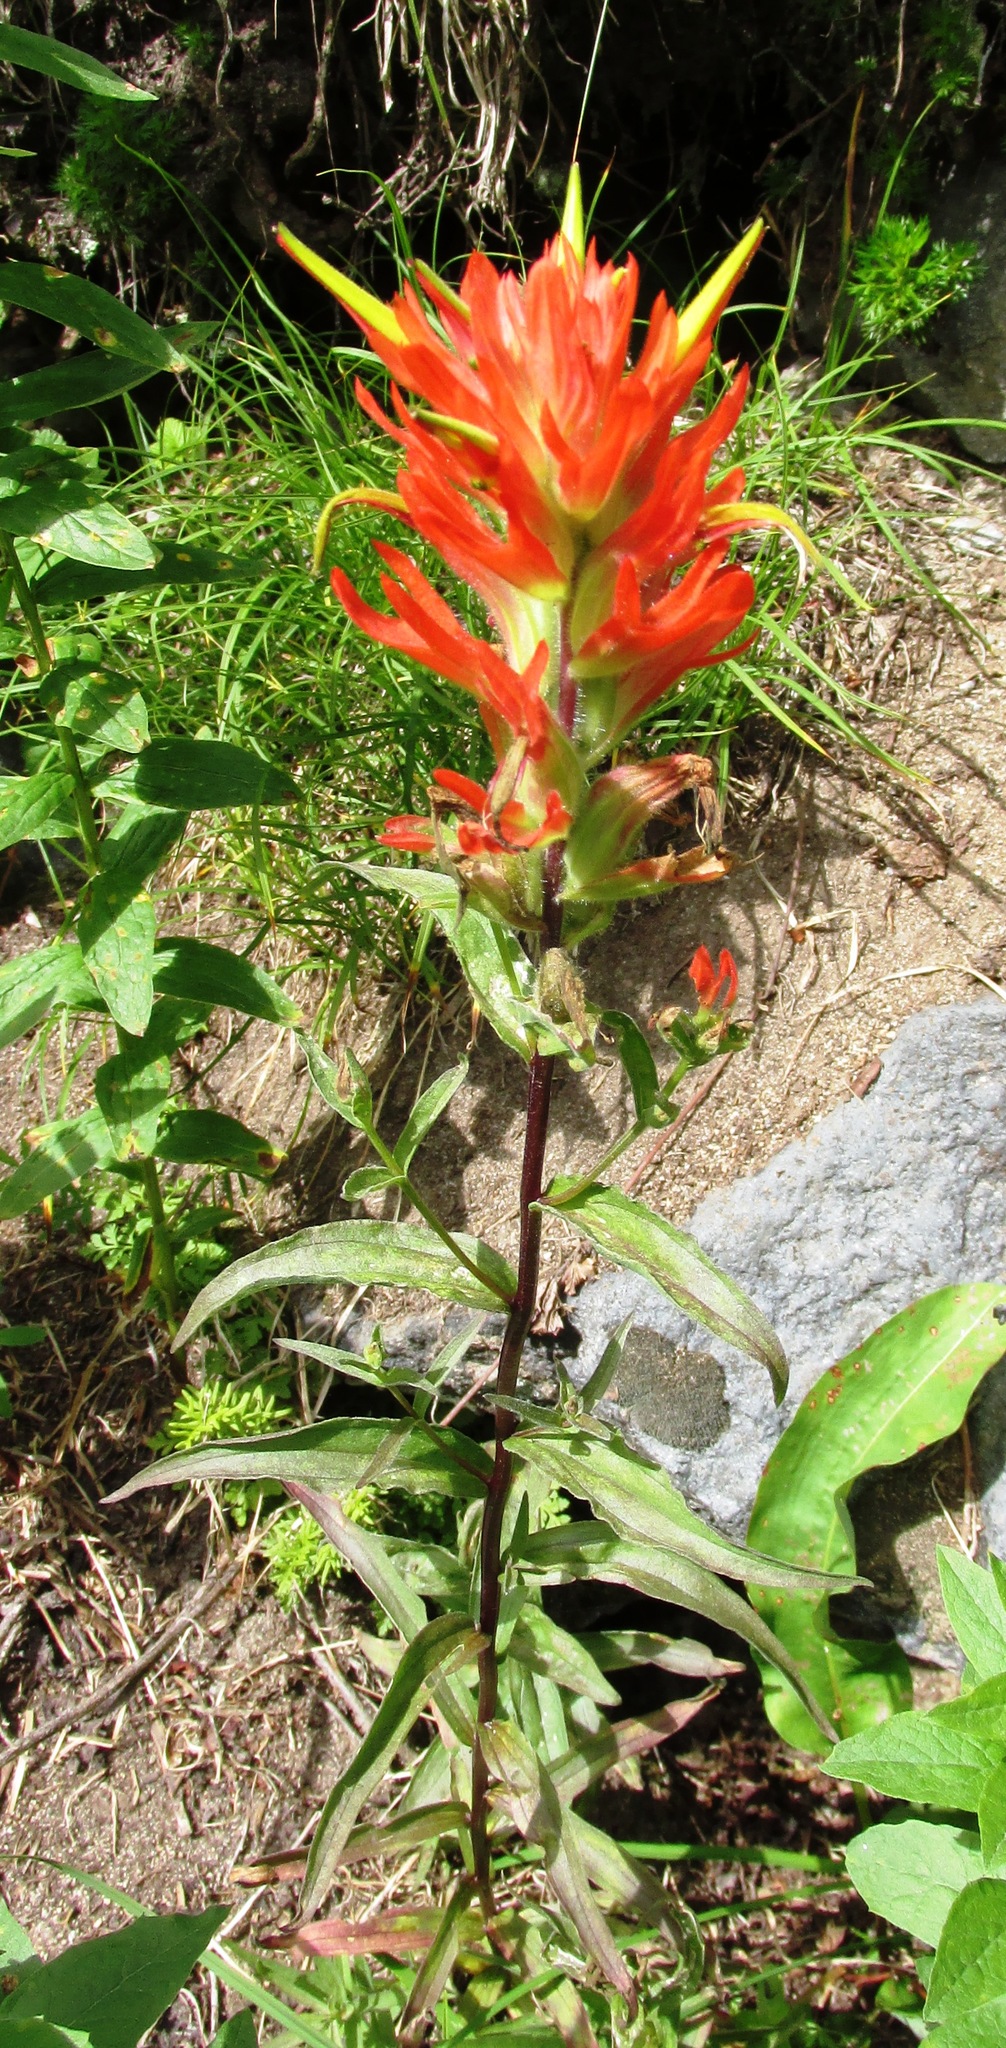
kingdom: Plantae
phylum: Tracheophyta
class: Magnoliopsida
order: Lamiales
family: Orobanchaceae
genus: Castilleja
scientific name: Castilleja miniata
